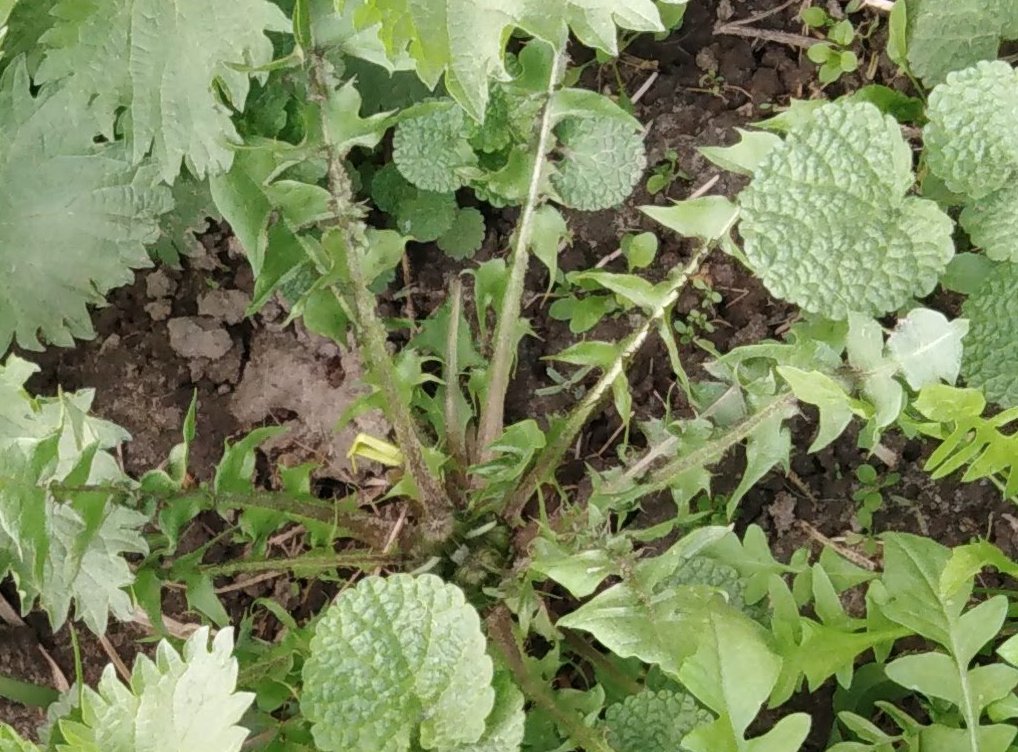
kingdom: Plantae
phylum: Tracheophyta
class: Magnoliopsida
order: Asterales
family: Asteraceae
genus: Taraxacum
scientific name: Taraxacum officinale
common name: Common dandelion
